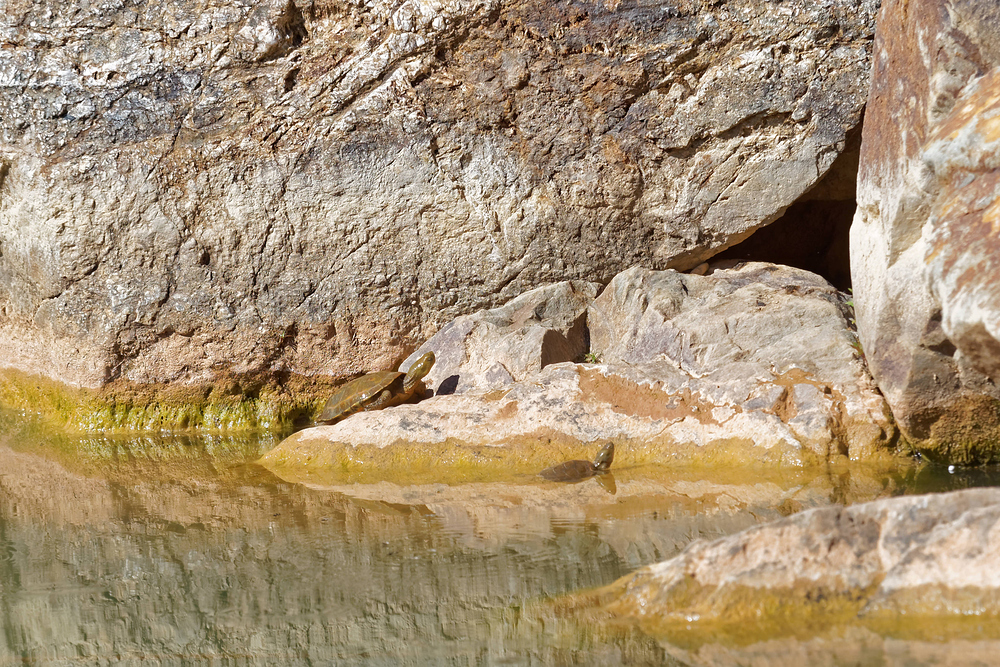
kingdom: Animalia
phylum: Chordata
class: Testudines
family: Geoemydidae
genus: Mauremys
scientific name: Mauremys leprosa
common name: Mediterranean pond turtle
